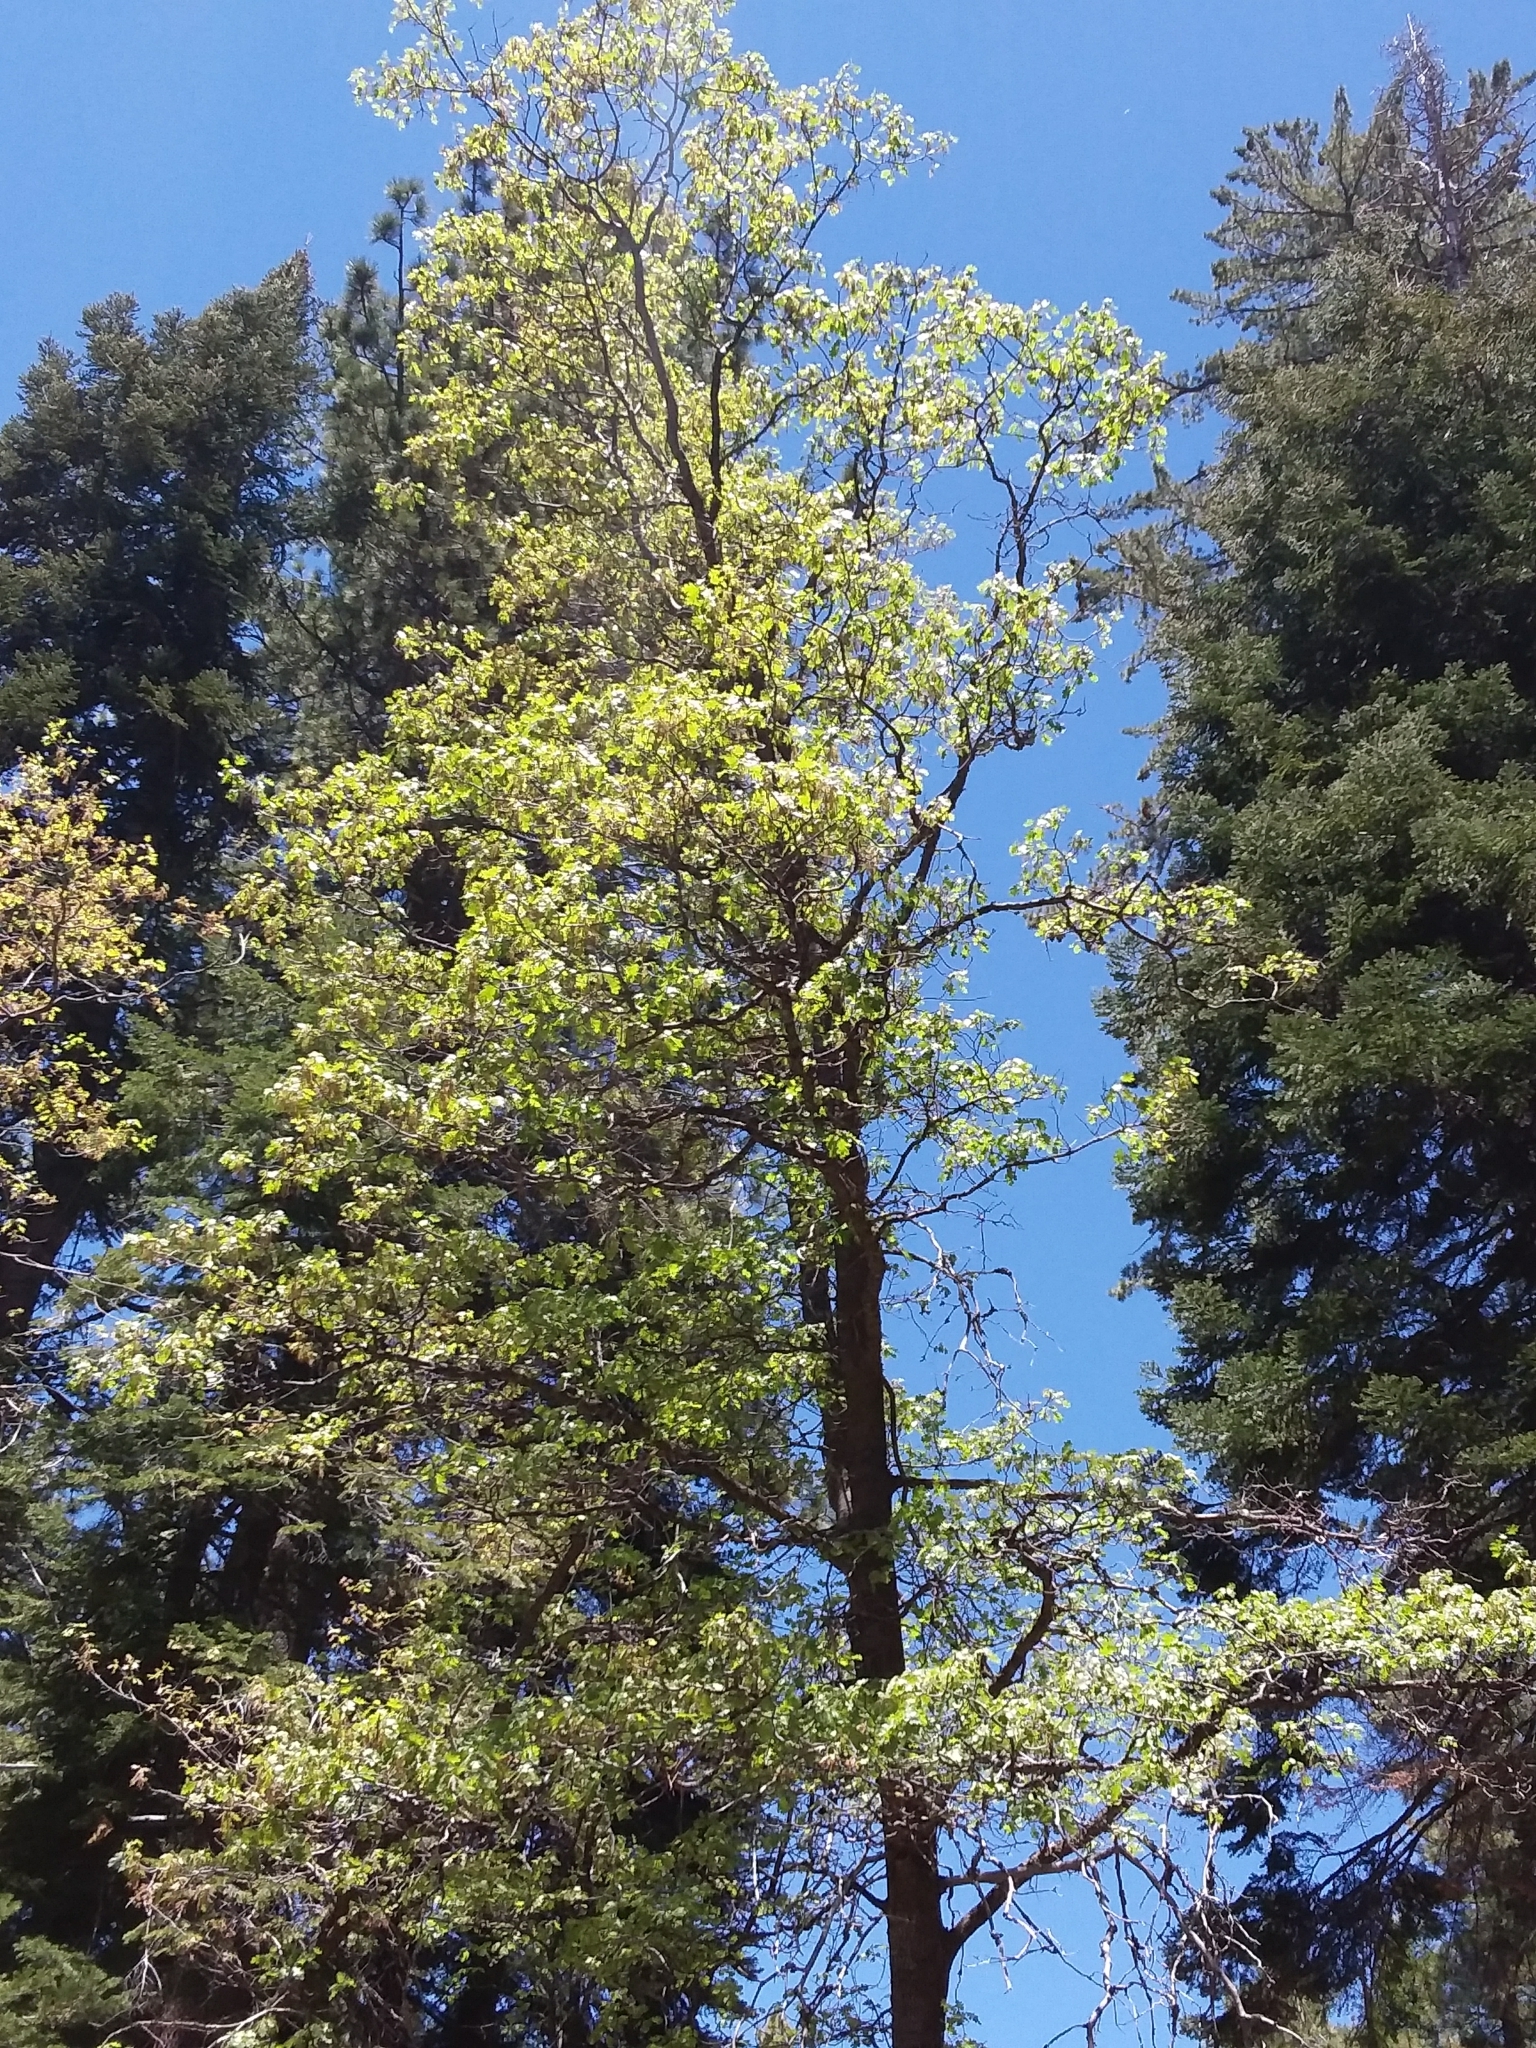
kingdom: Plantae
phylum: Tracheophyta
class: Magnoliopsida
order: Fagales
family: Fagaceae
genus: Quercus
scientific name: Quercus kelloggii
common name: California black oak
